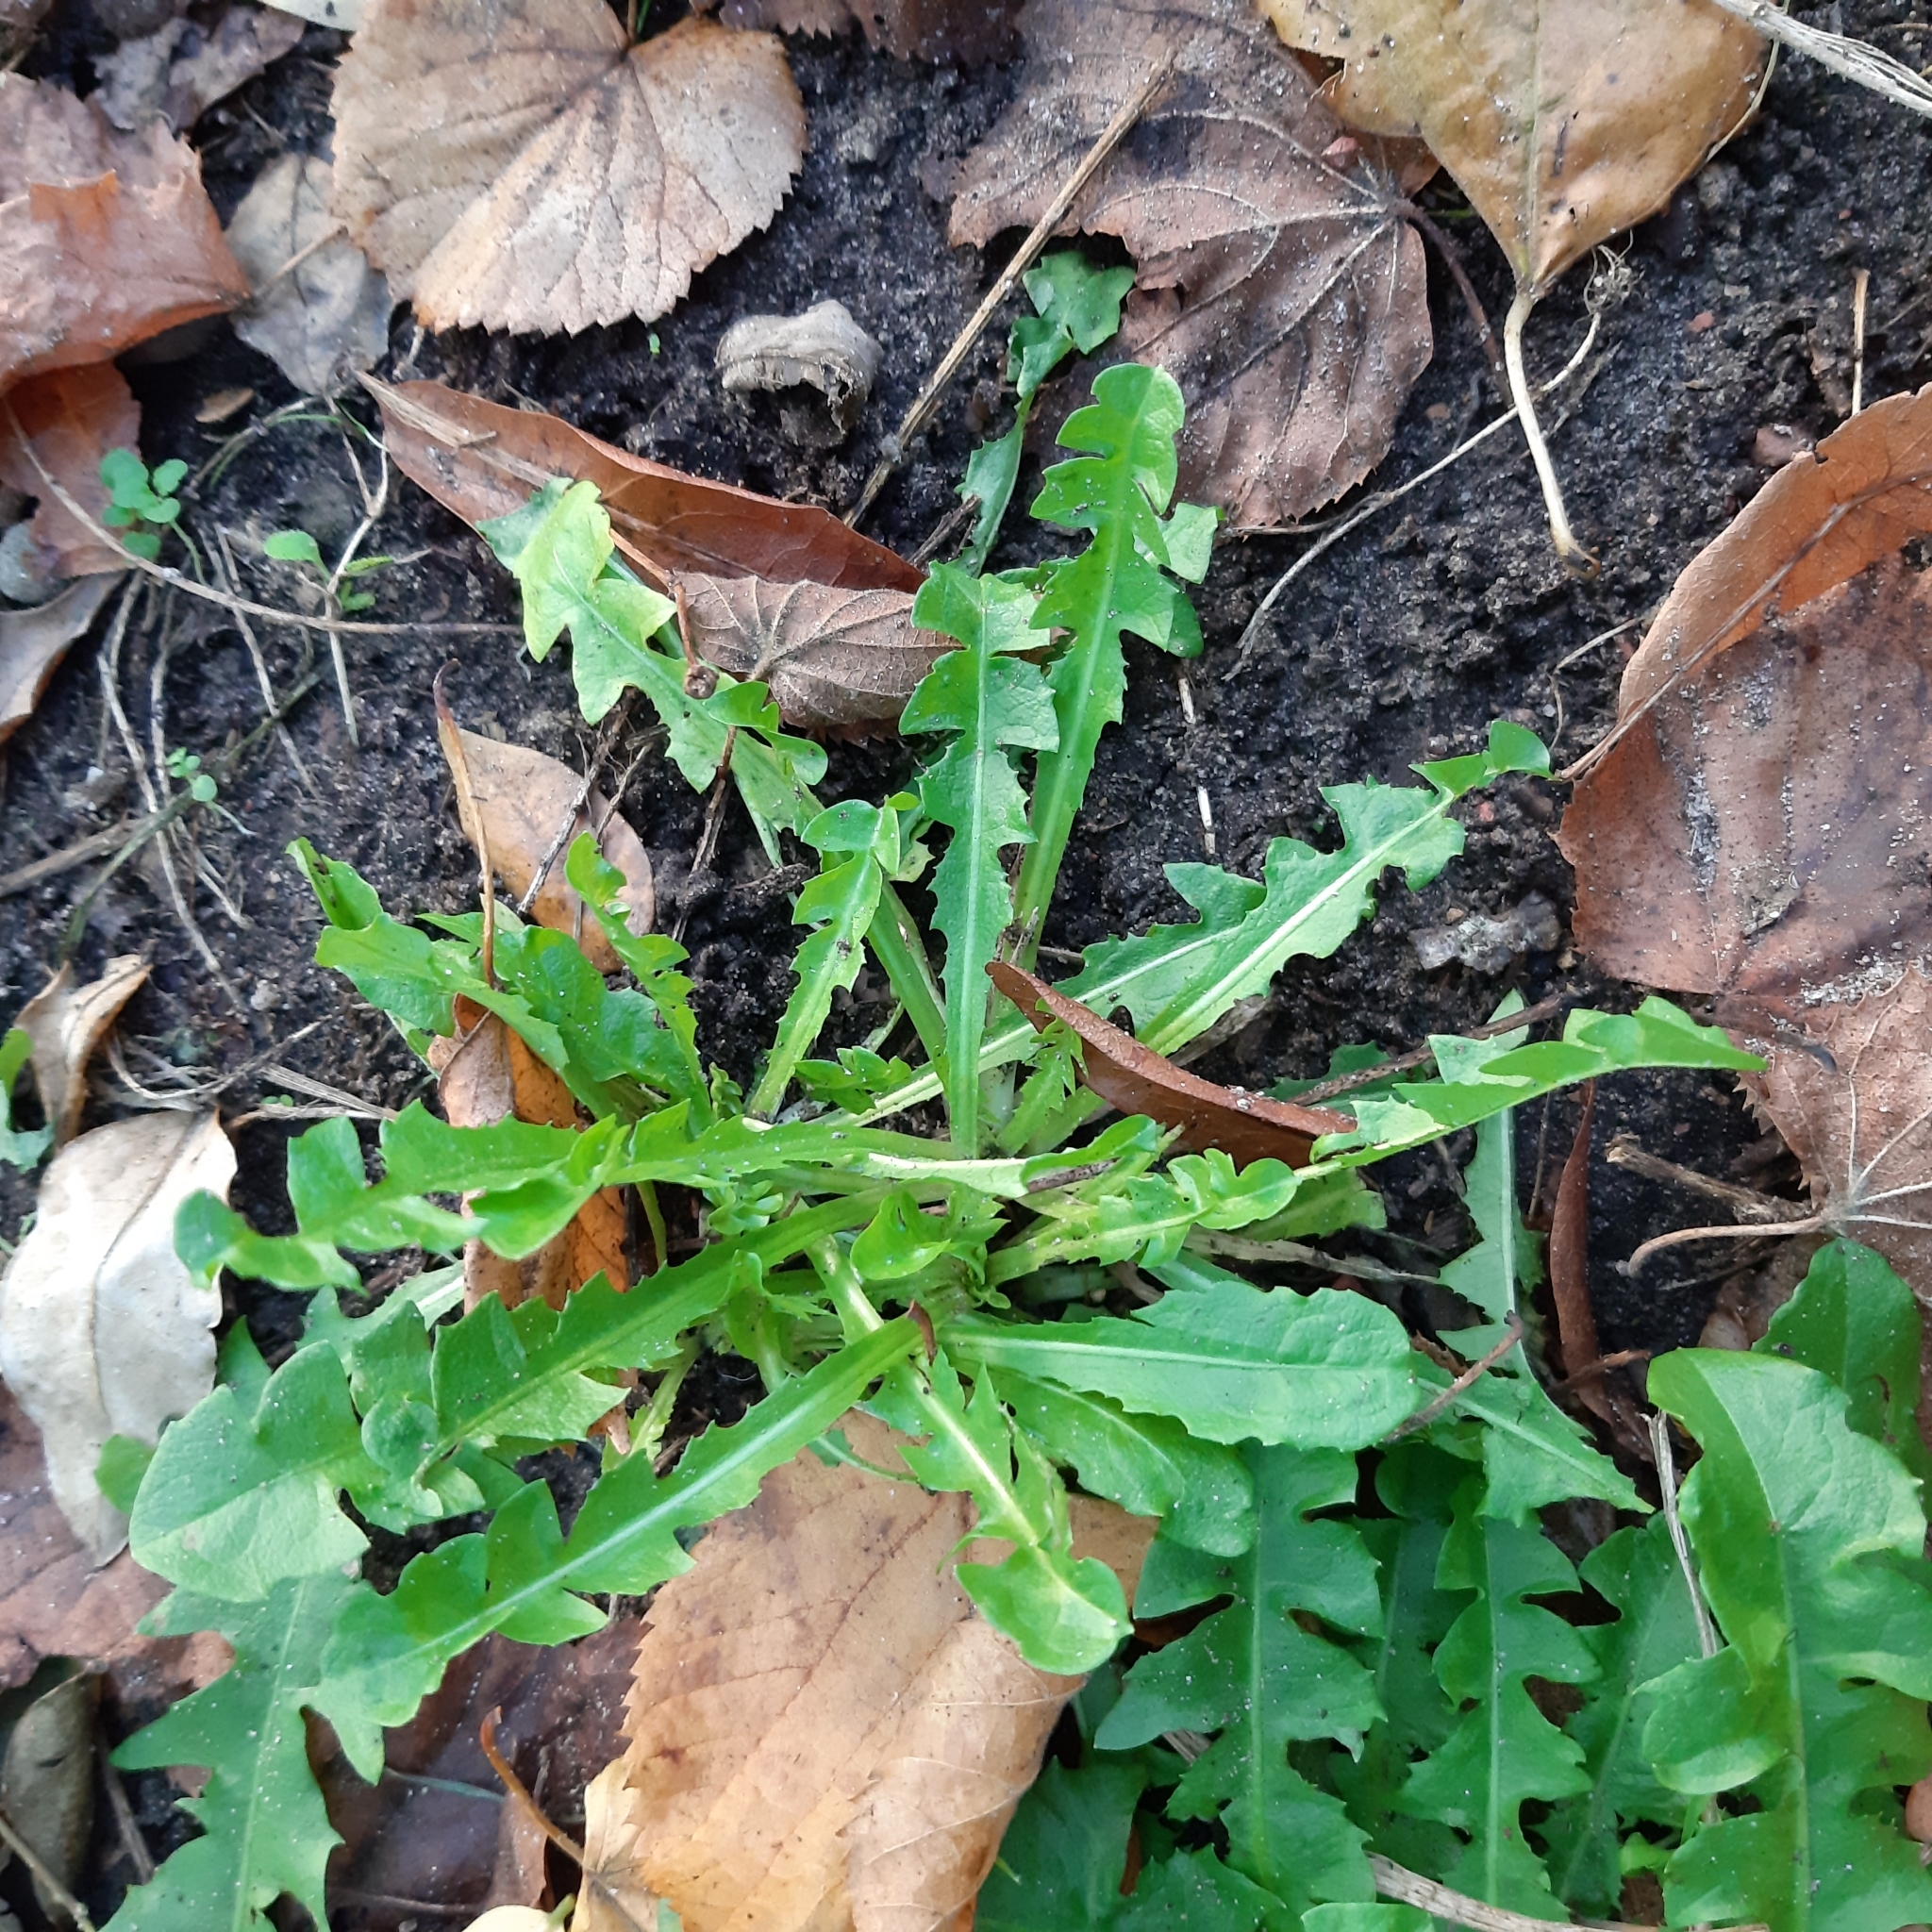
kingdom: Plantae
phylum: Tracheophyta
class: Magnoliopsida
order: Asterales
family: Asteraceae
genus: Taraxacum
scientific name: Taraxacum officinale
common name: Common dandelion
